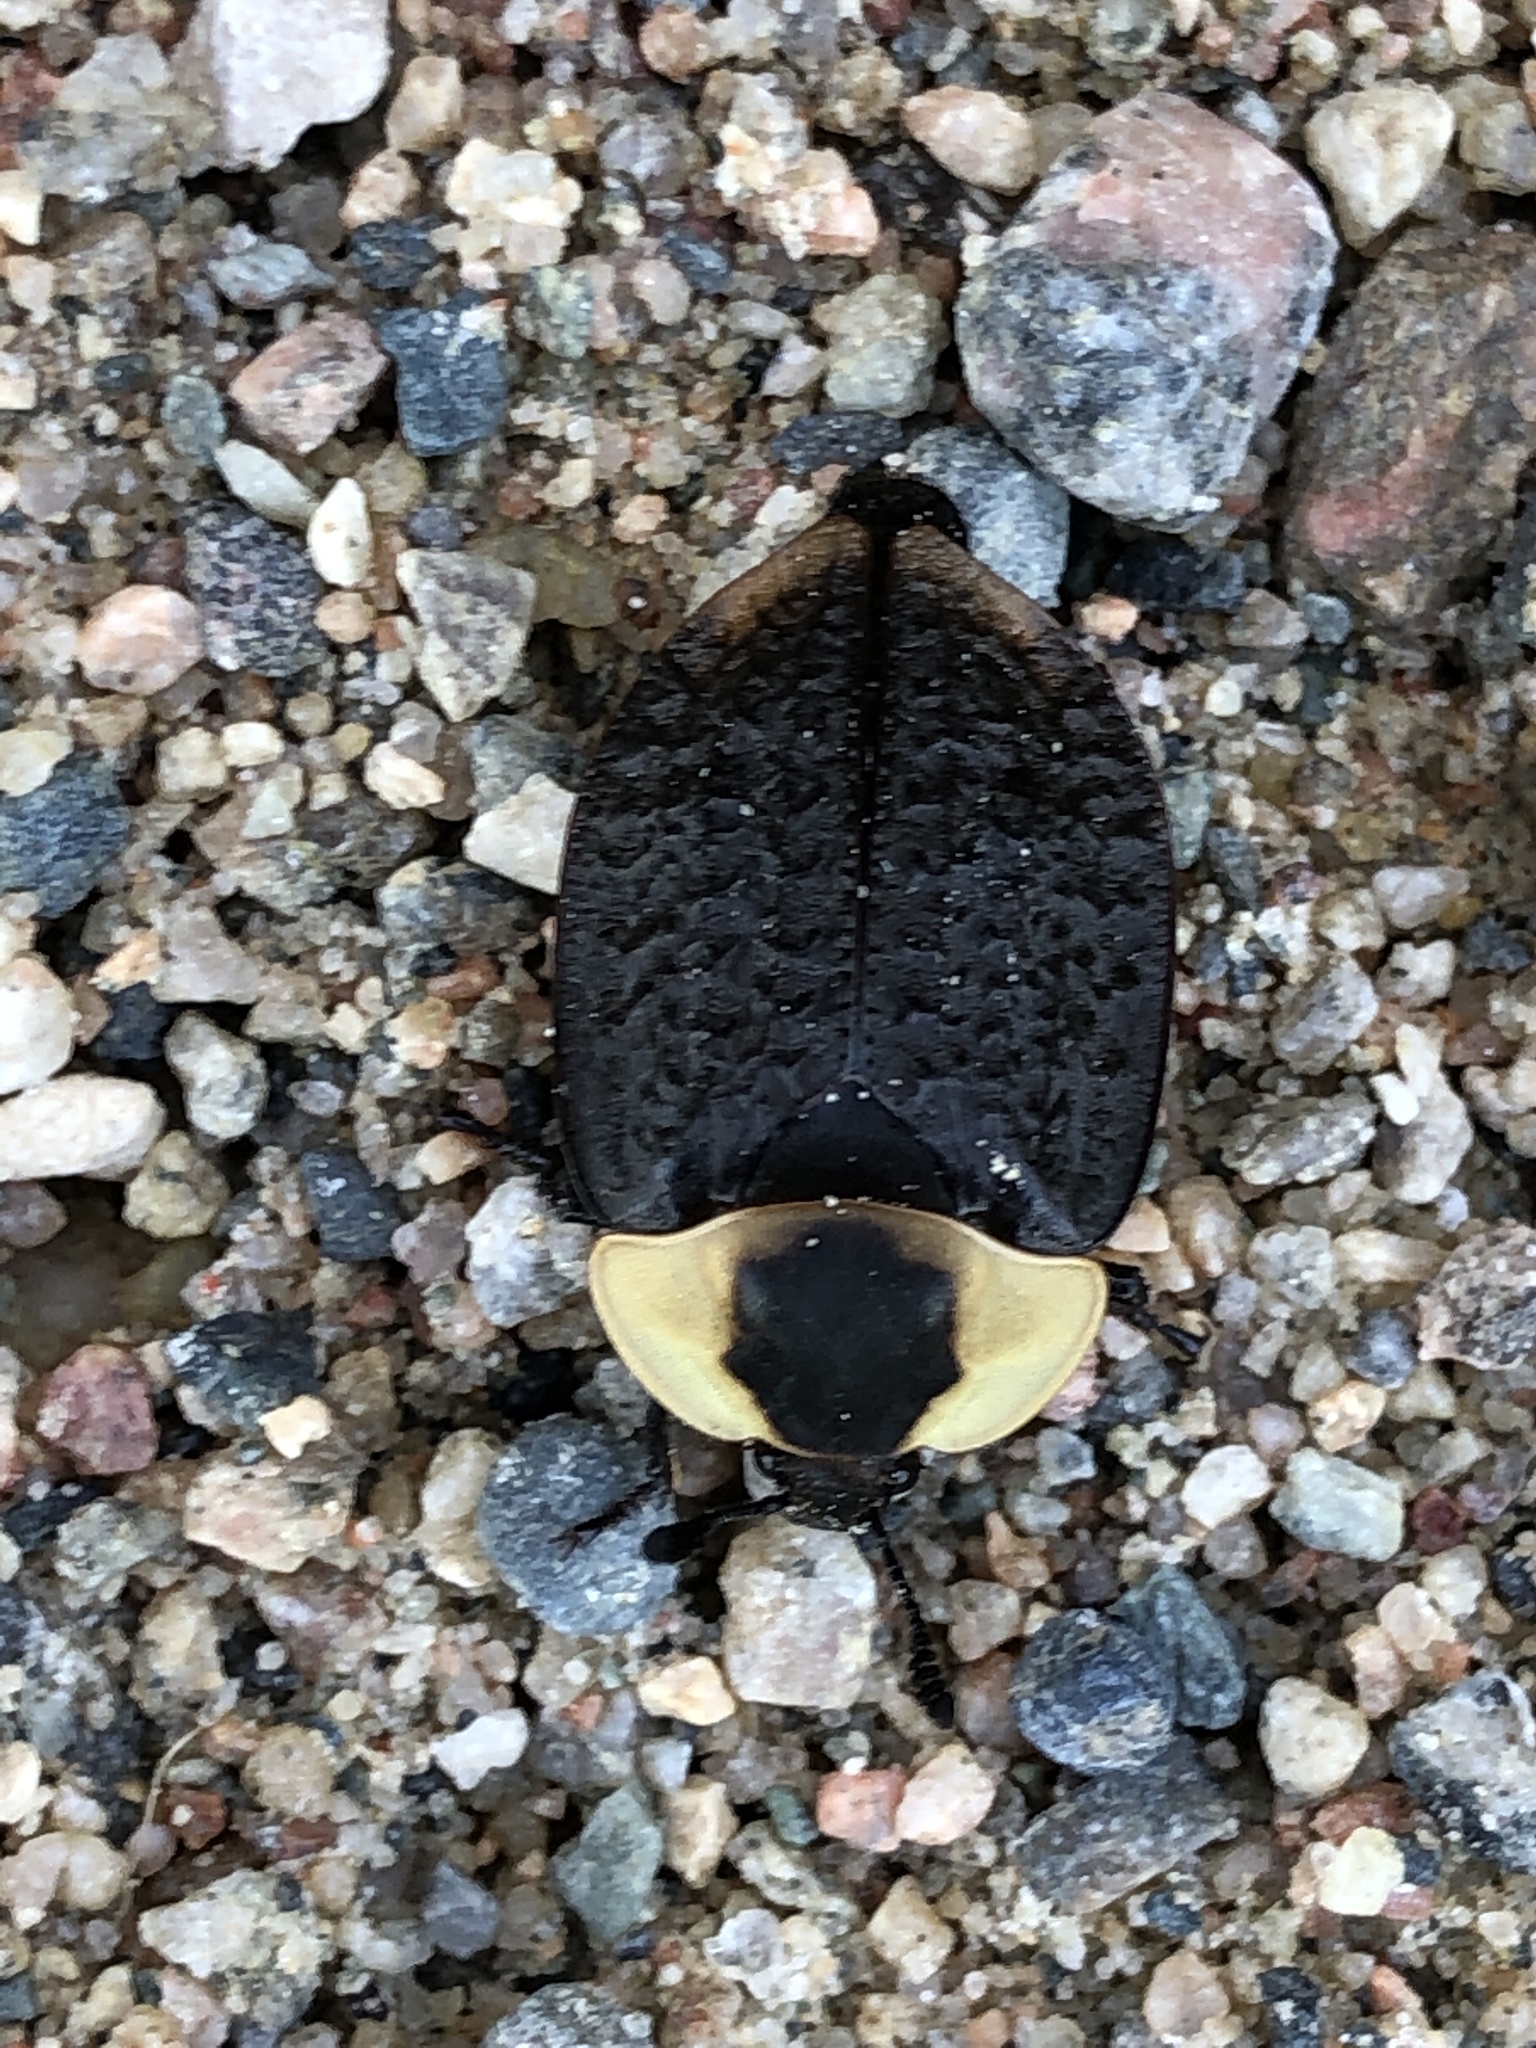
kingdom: Animalia
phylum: Arthropoda
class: Insecta
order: Coleoptera
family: Staphylinidae
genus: Necrophila
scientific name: Necrophila americana
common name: American carrion beetle
